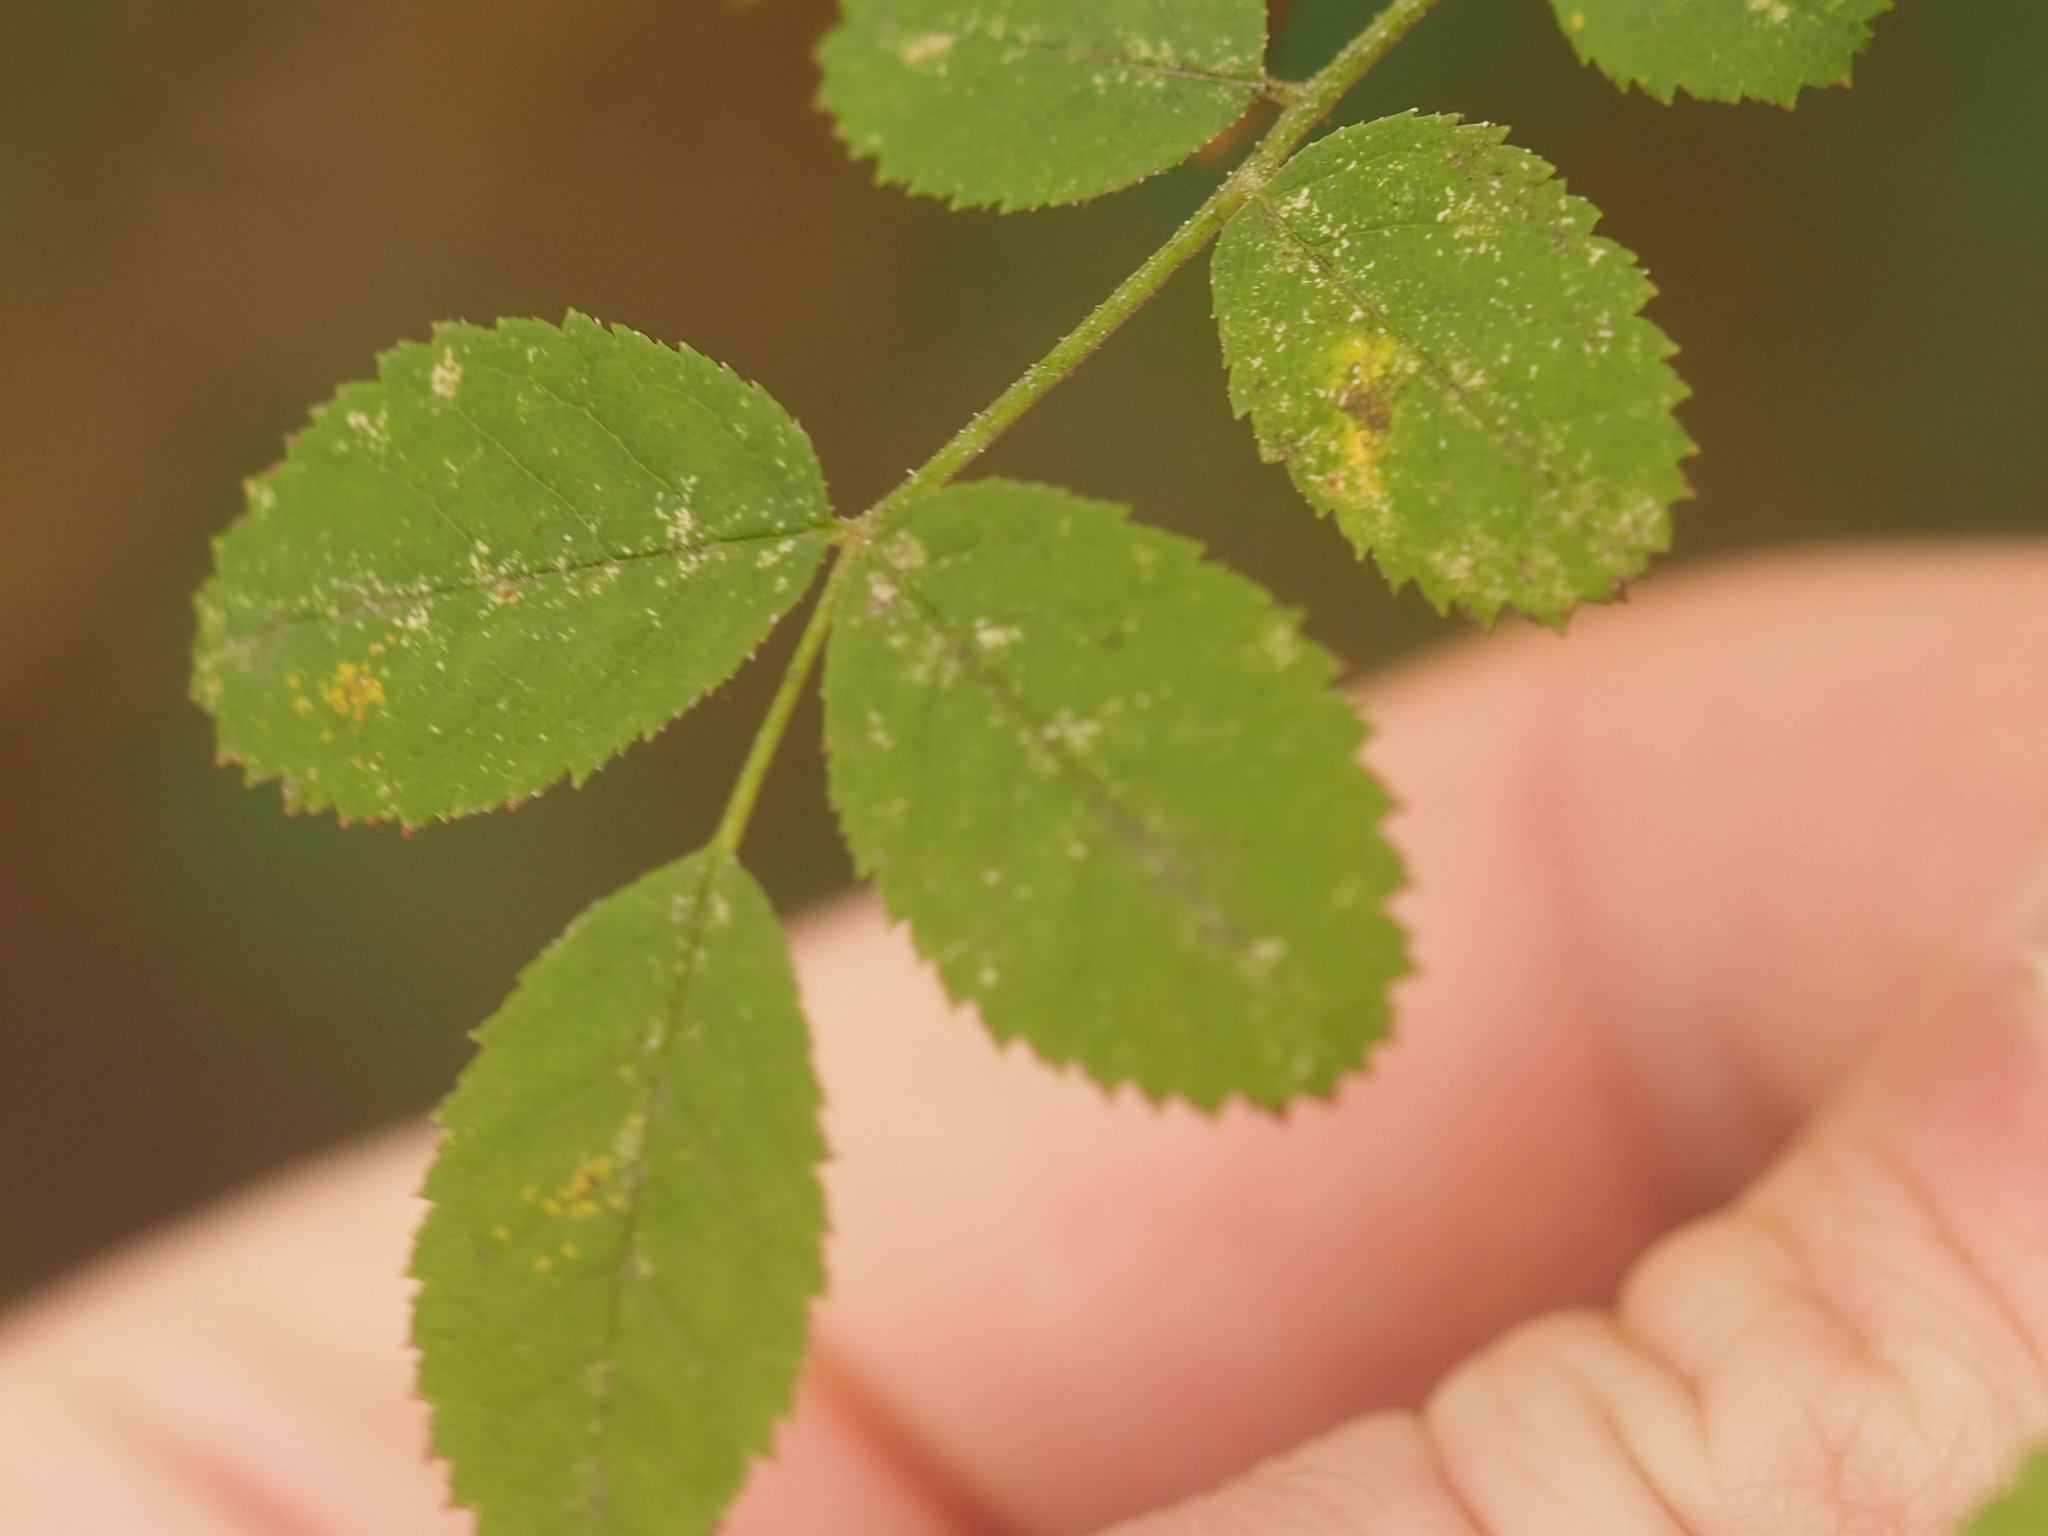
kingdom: Plantae
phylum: Tracheophyta
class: Magnoliopsida
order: Rosales
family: Rosaceae
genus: Rosa
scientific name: Rosa nutkana
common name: Nootka rose
